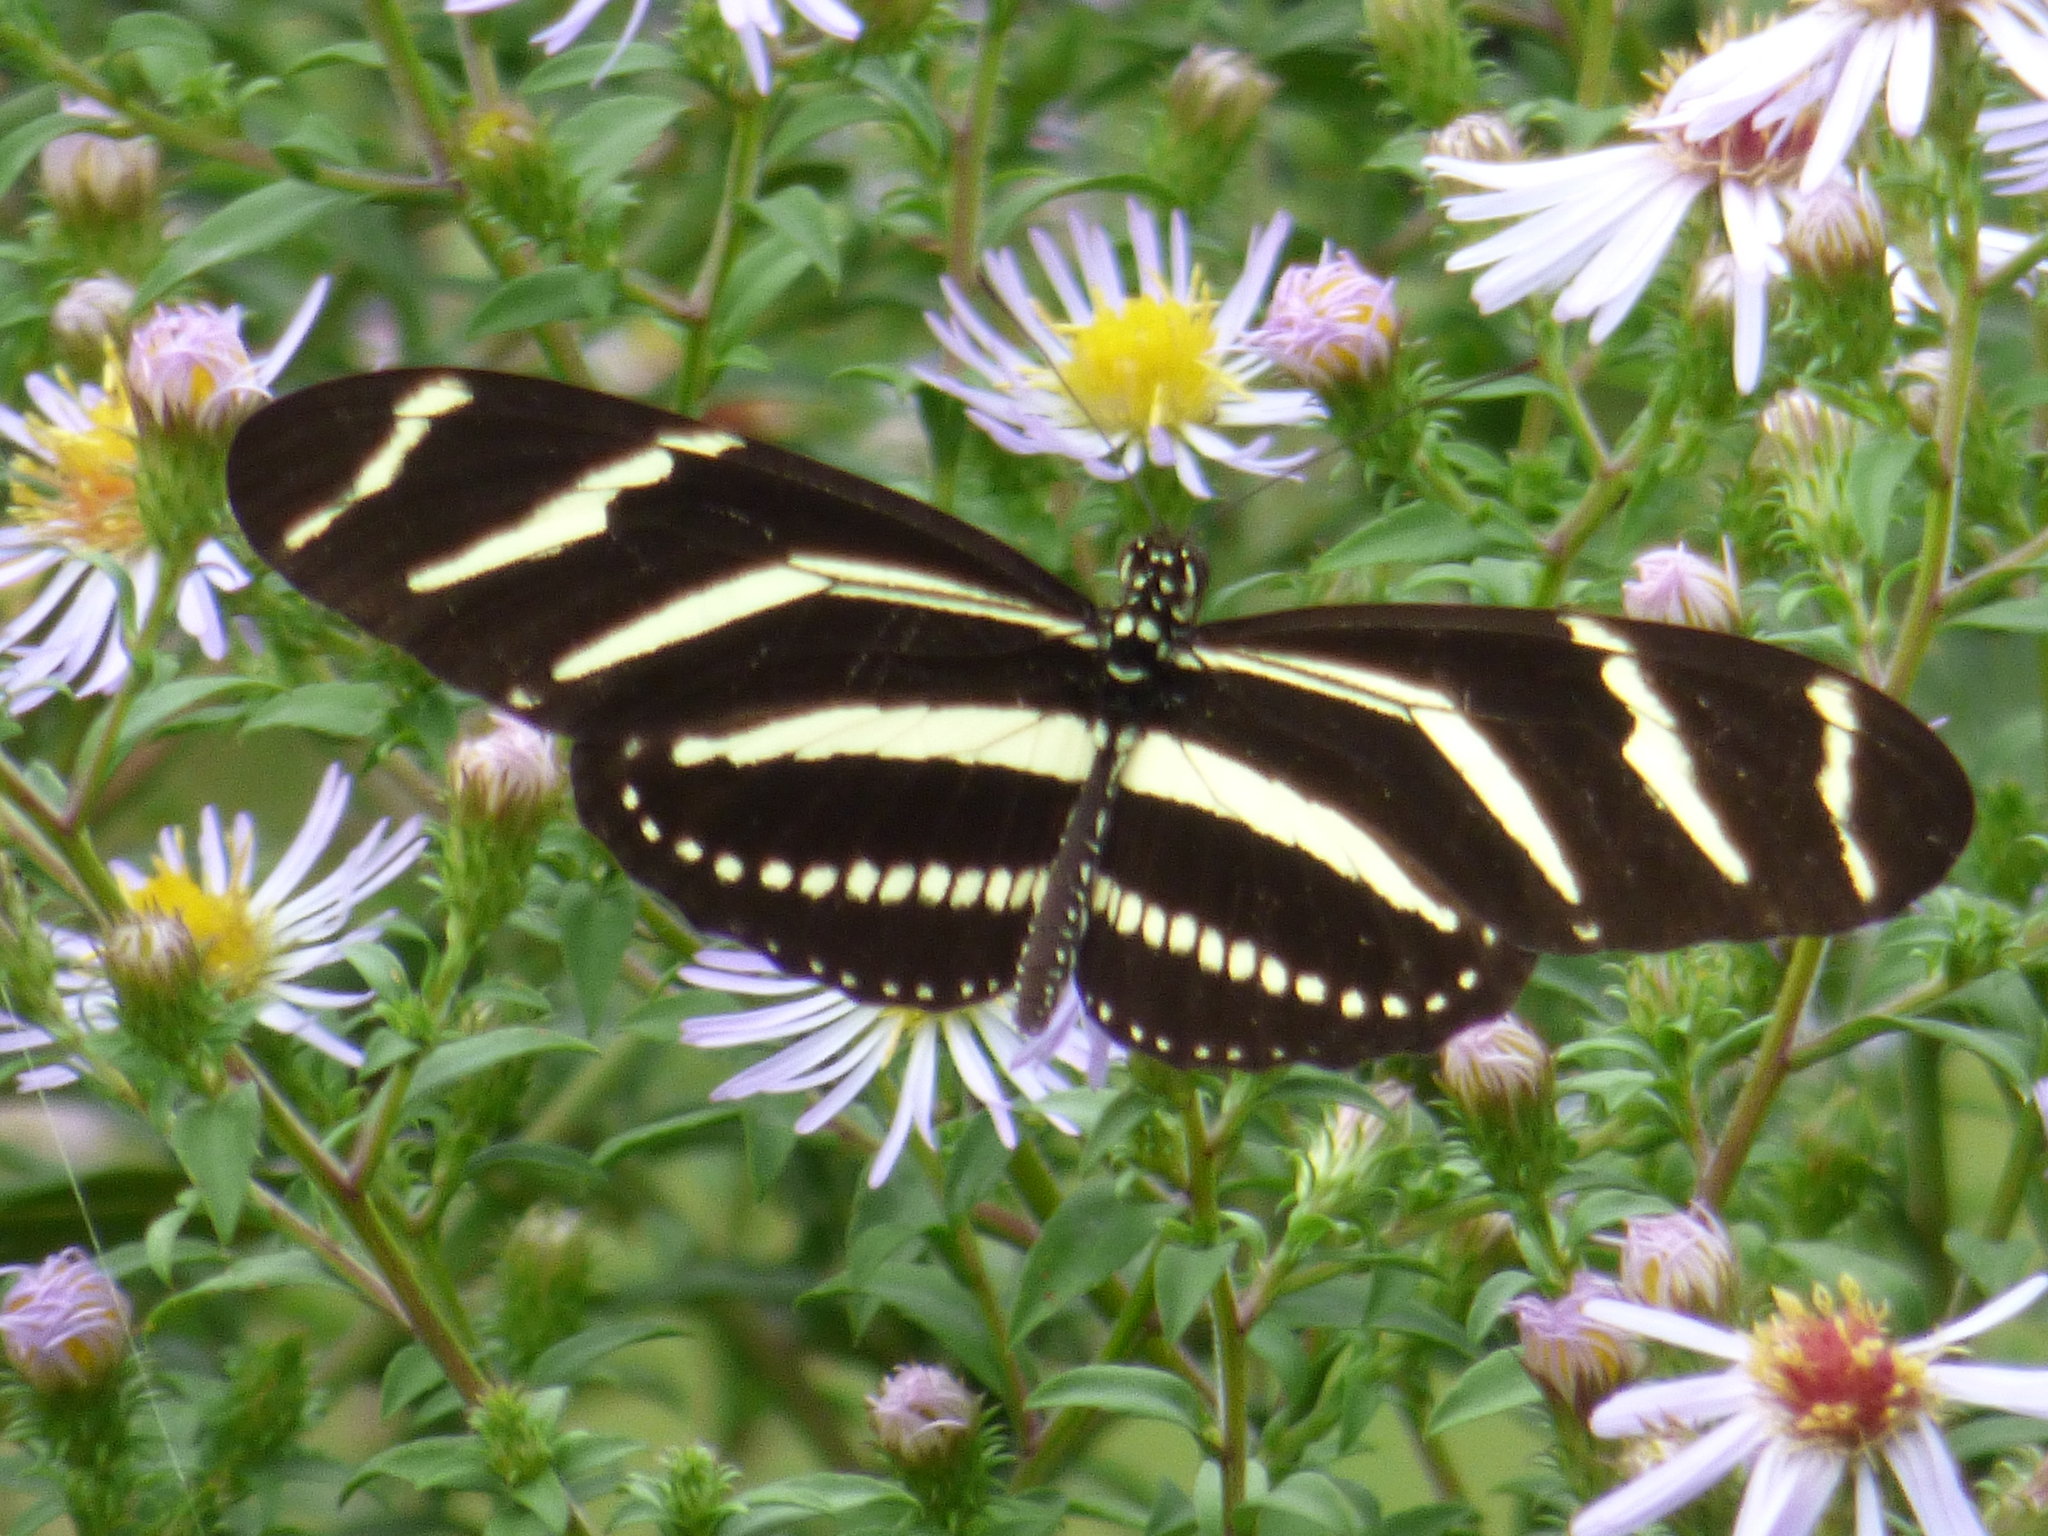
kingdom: Animalia
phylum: Arthropoda
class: Insecta
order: Lepidoptera
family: Nymphalidae
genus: Heliconius
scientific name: Heliconius charithonia
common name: Zebra long wing
